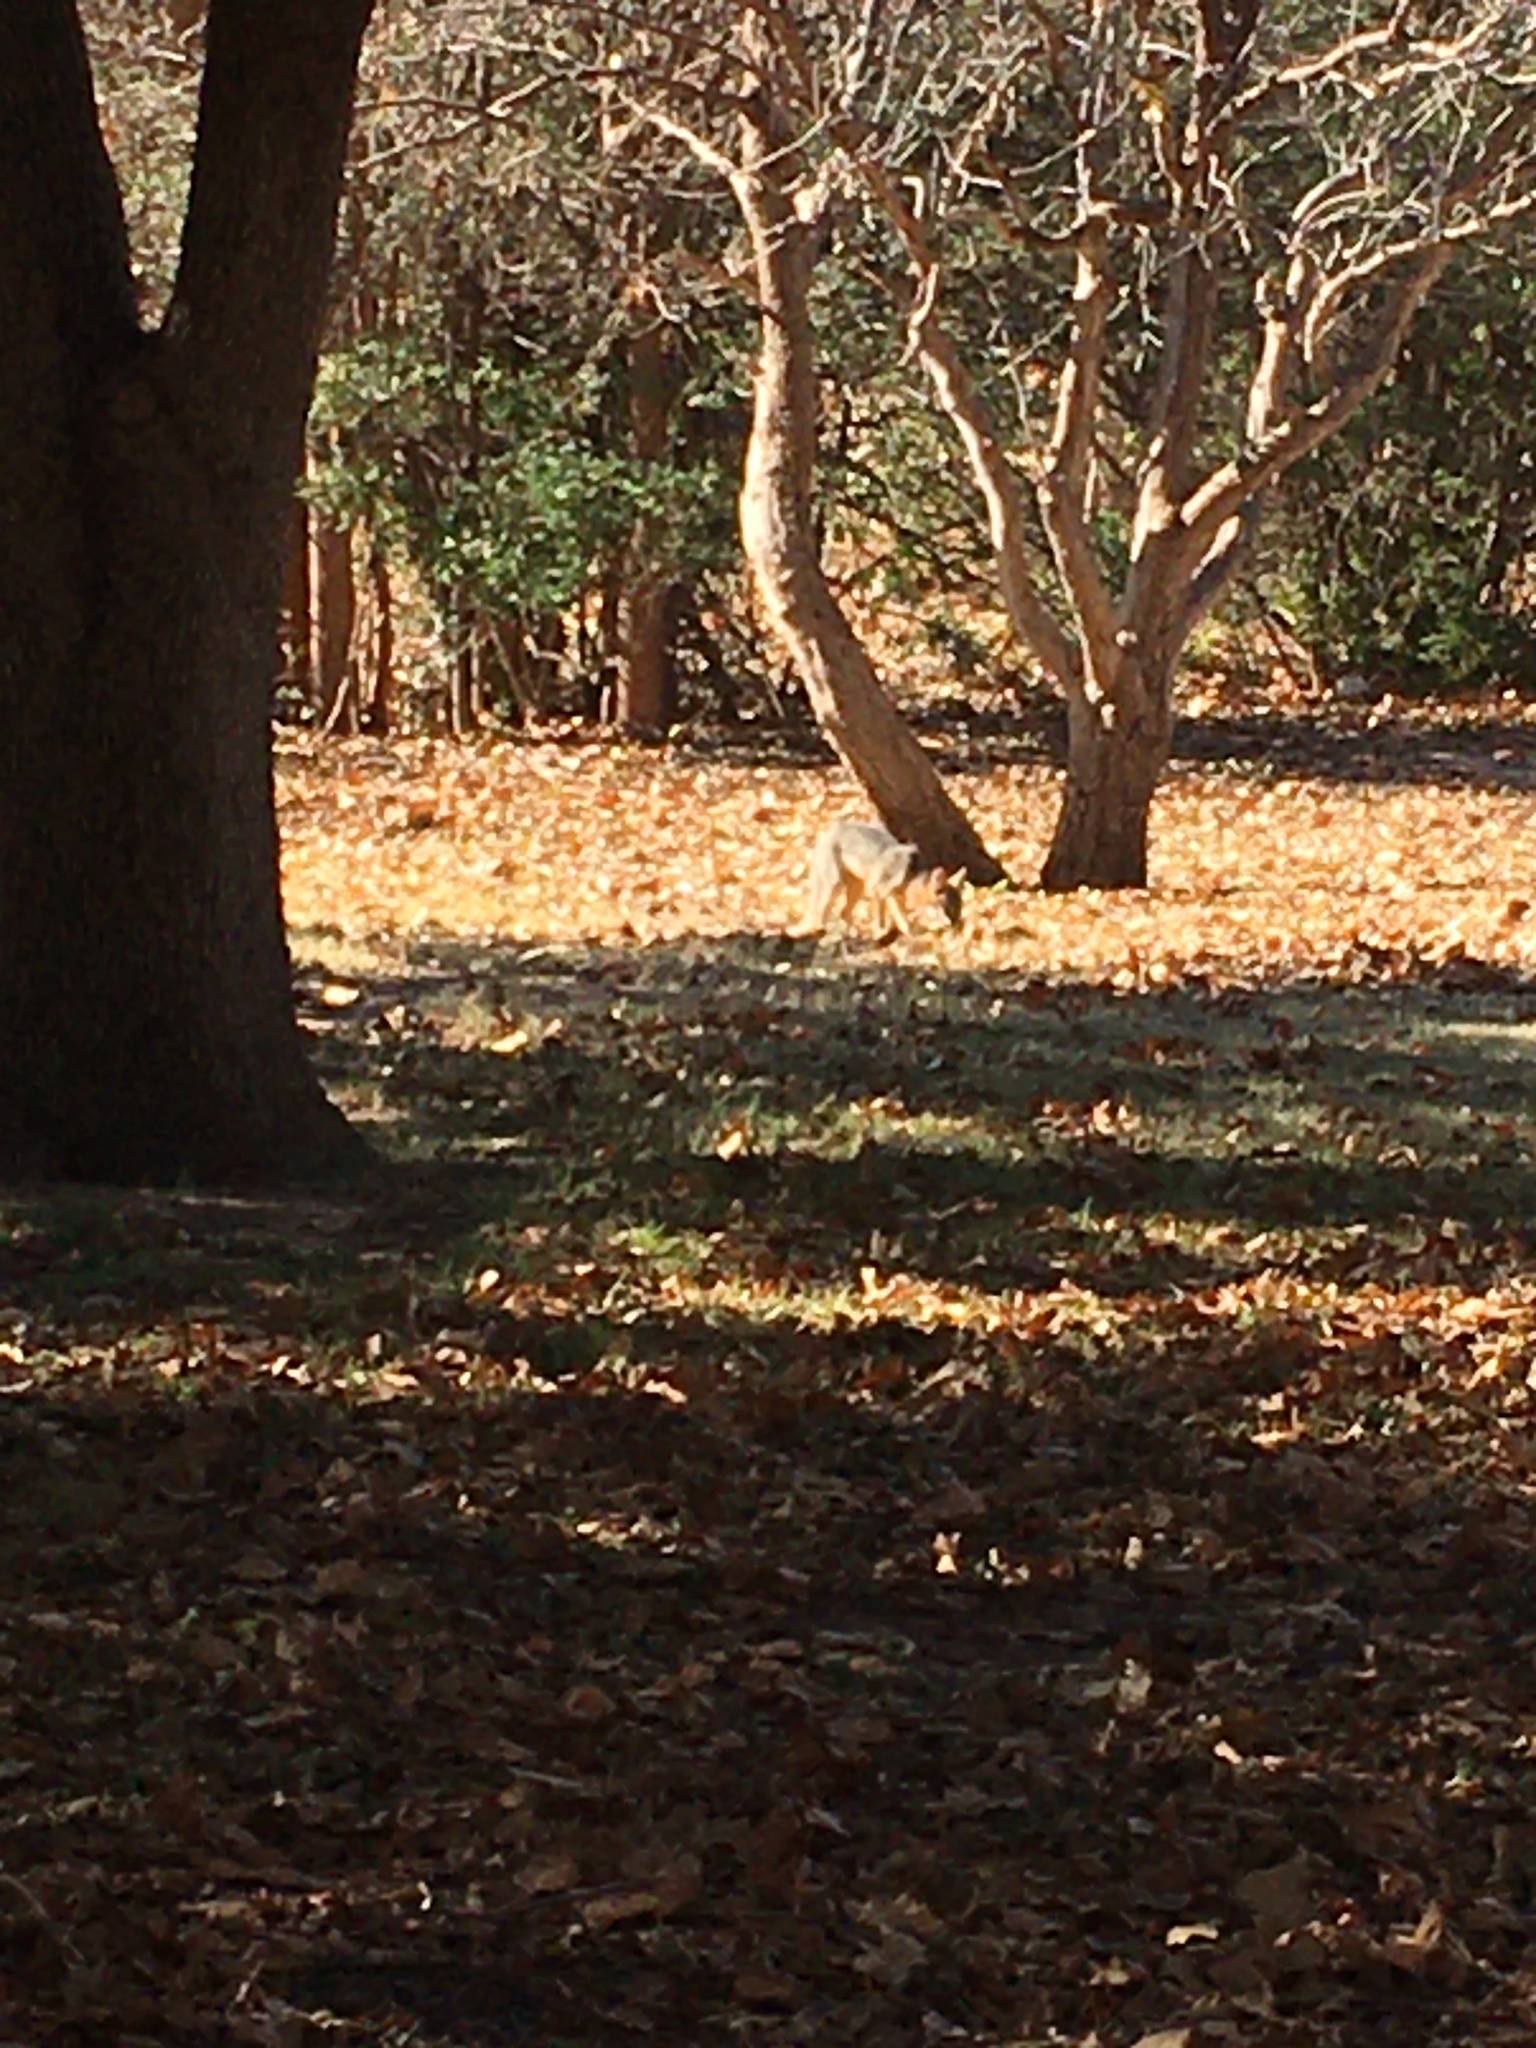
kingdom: Animalia
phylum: Chordata
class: Mammalia
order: Carnivora
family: Canidae
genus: Urocyon
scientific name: Urocyon cinereoargenteus
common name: Gray fox
